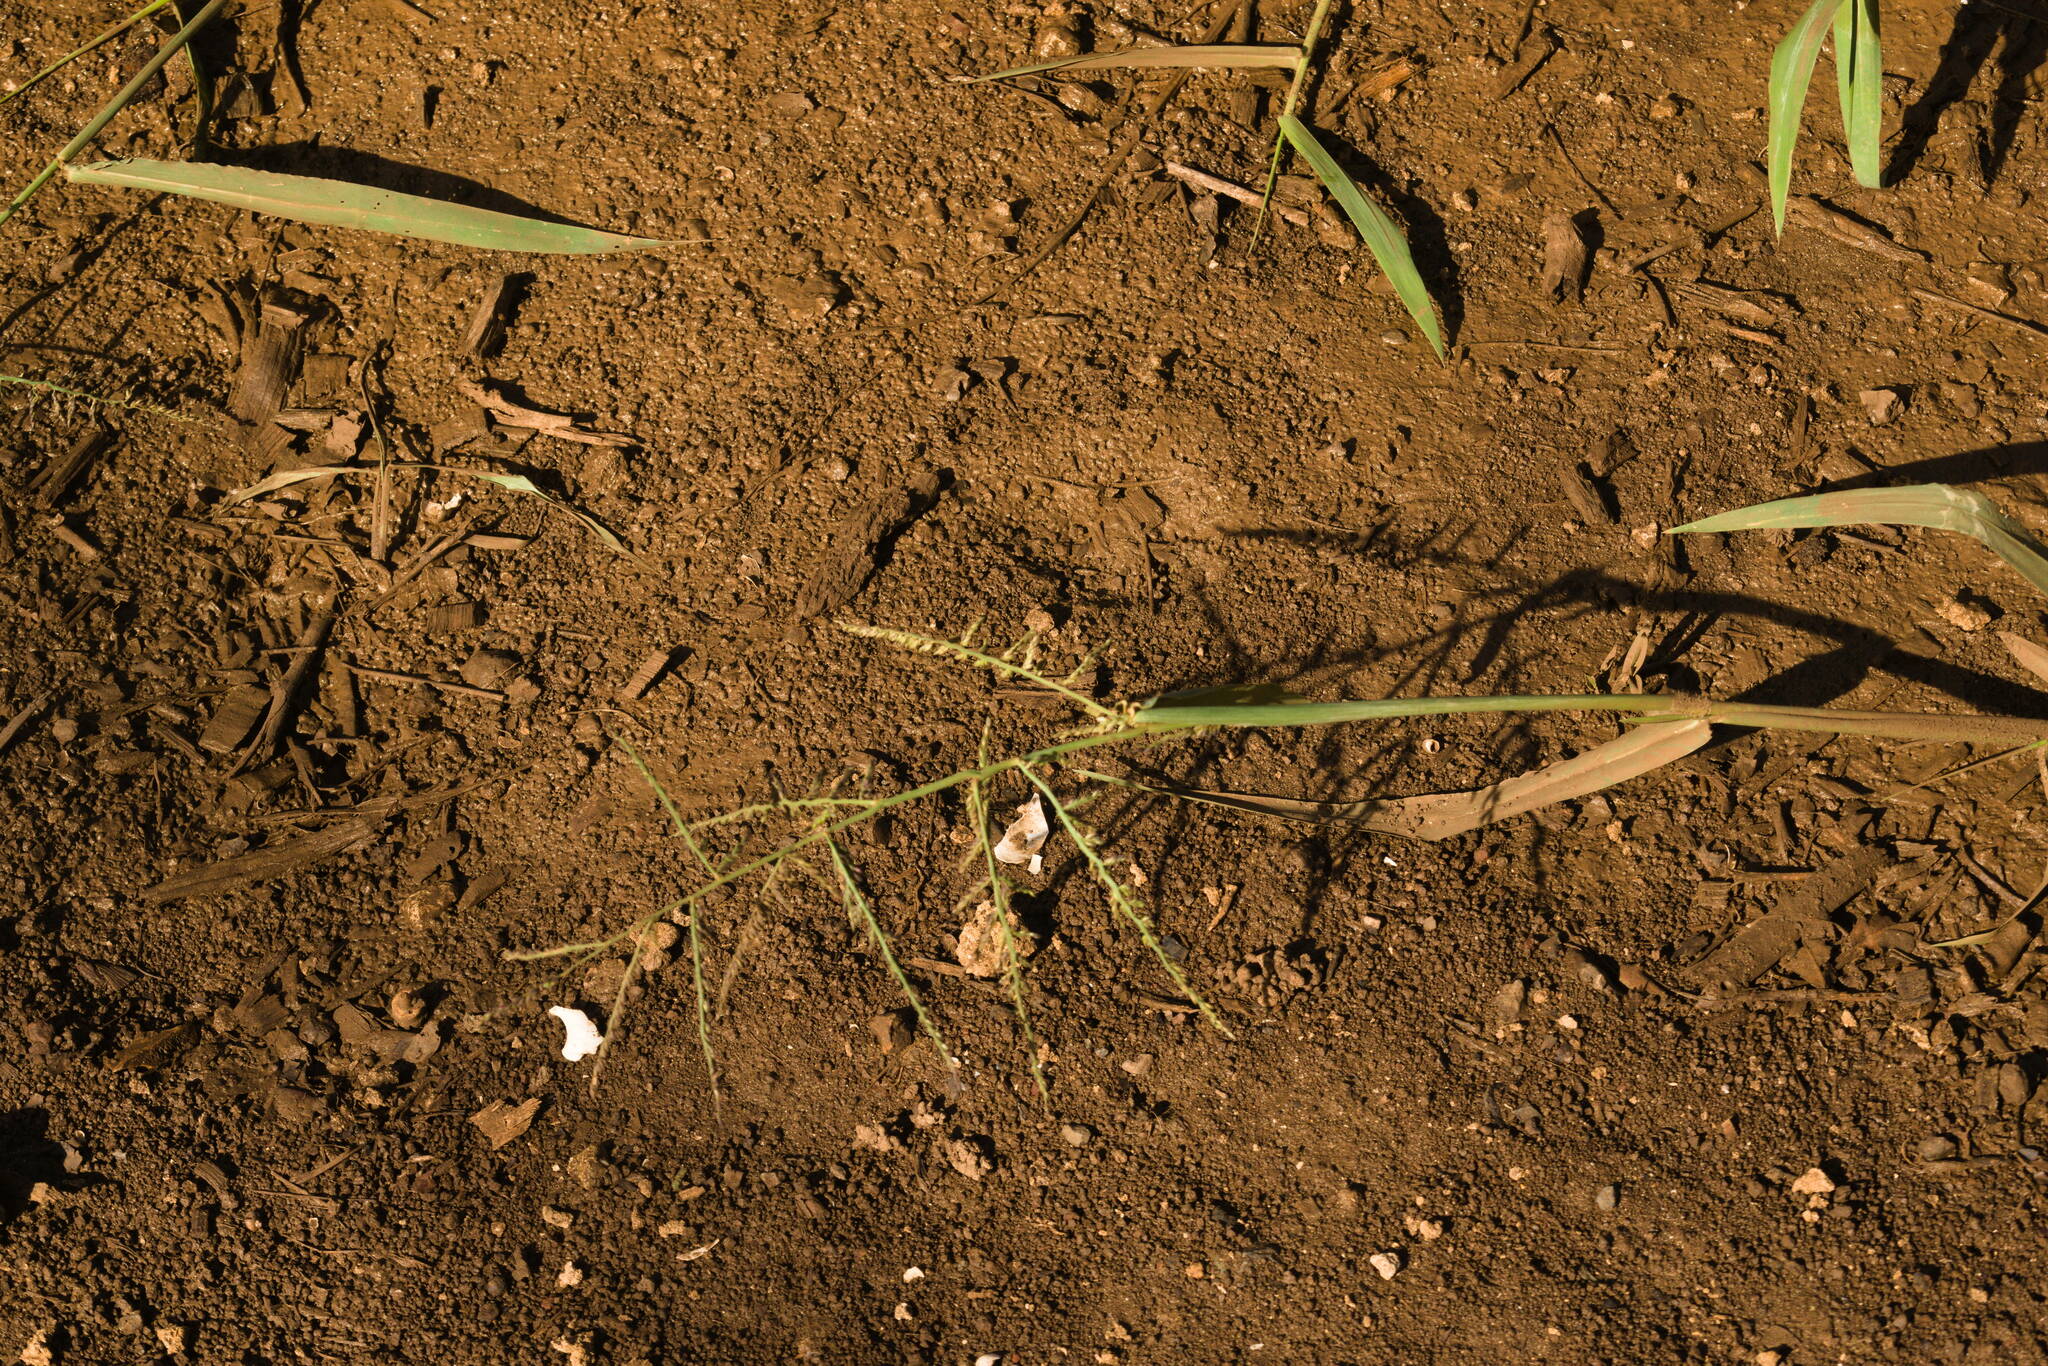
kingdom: Plantae
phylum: Tracheophyta
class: Liliopsida
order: Poales
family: Poaceae
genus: Urochloa
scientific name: Urochloa mutica
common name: Para grass
